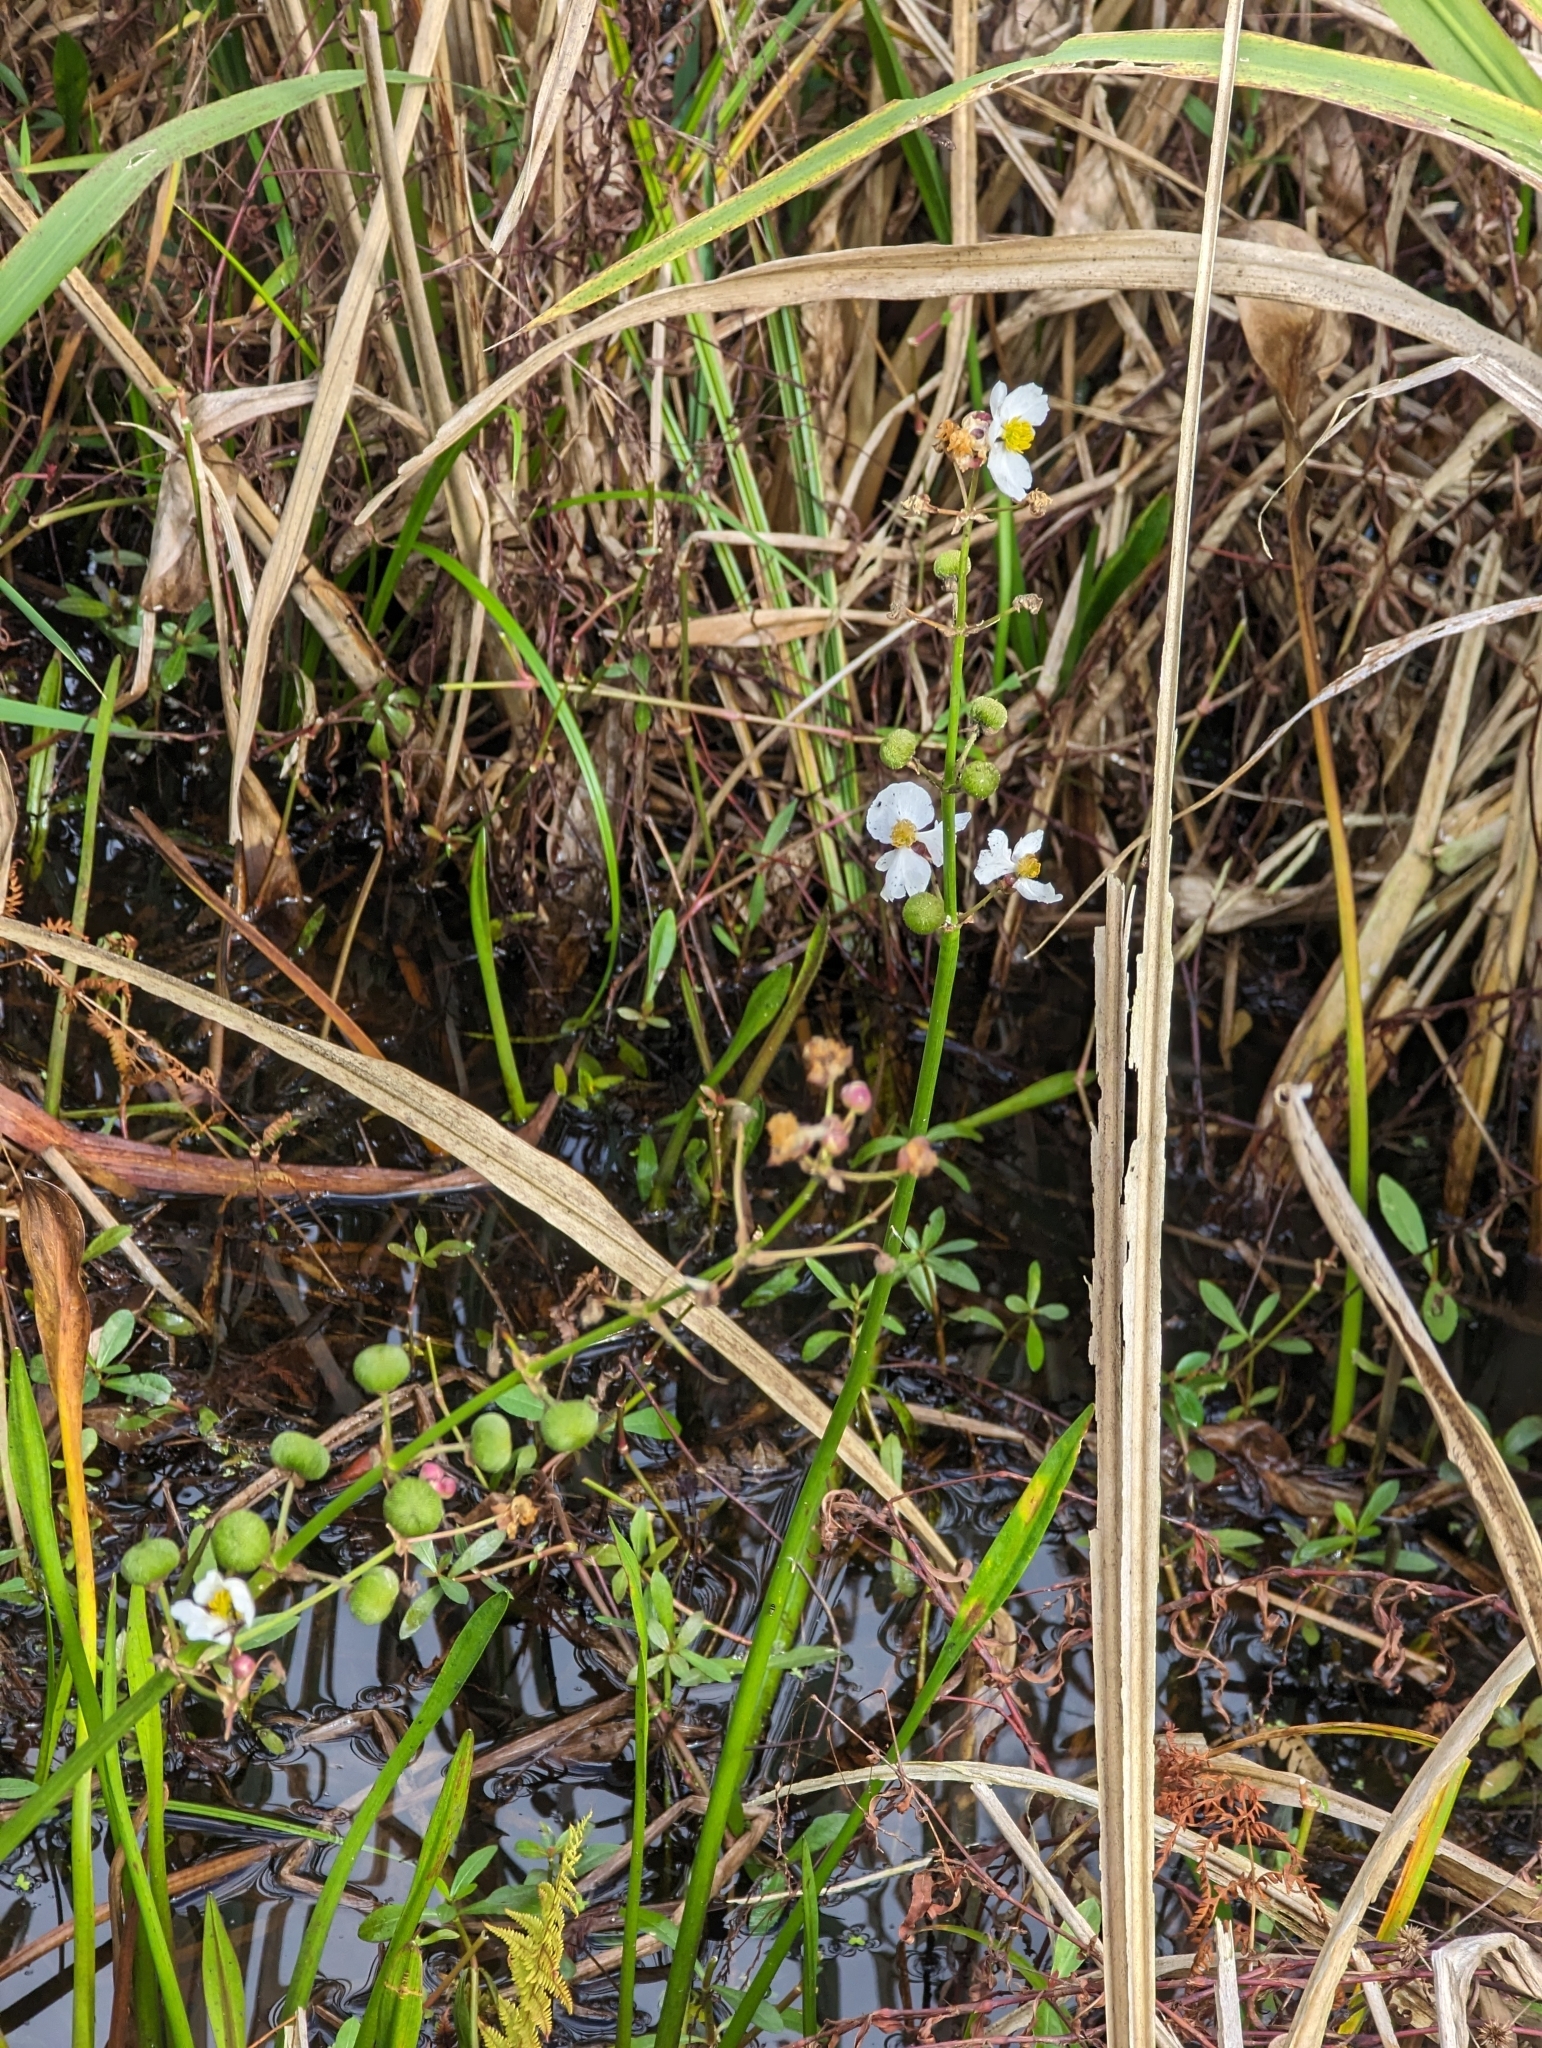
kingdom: Plantae
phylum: Tracheophyta
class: Liliopsida
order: Alismatales
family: Alismataceae
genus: Sagittaria
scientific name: Sagittaria lancifolia
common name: Lance-leaf arrowhead
